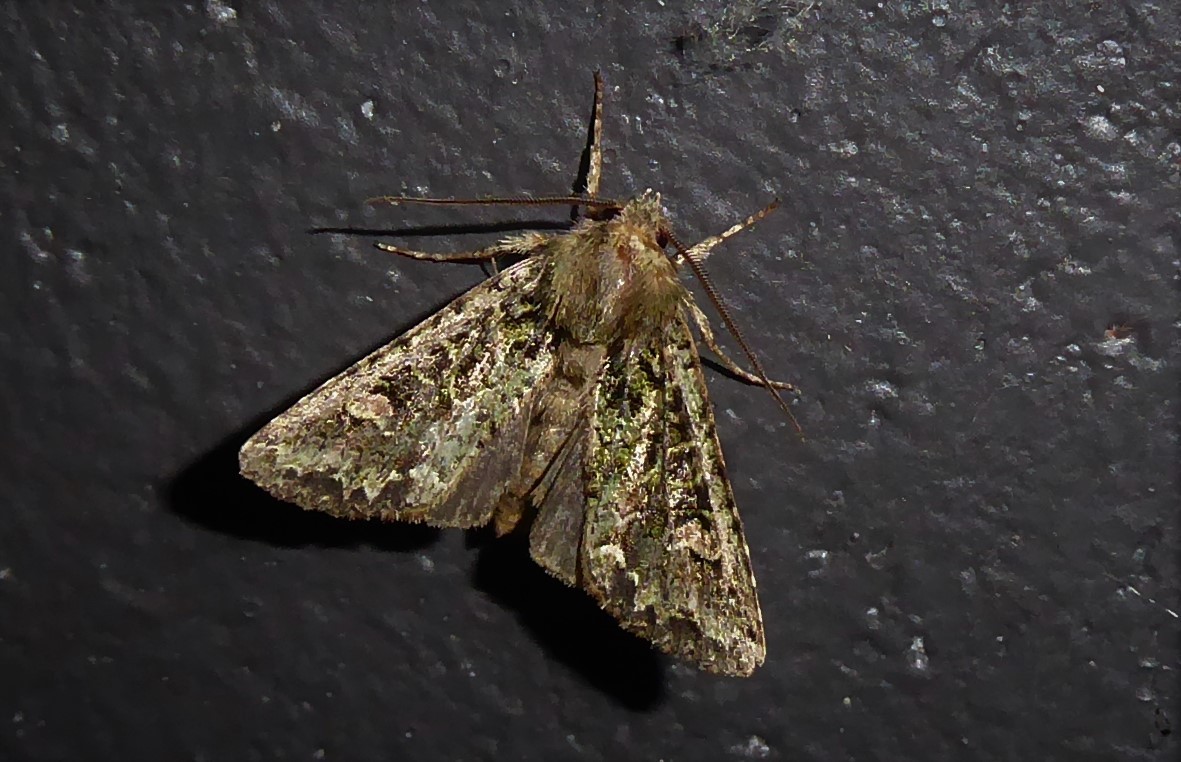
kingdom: Animalia
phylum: Arthropoda
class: Insecta
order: Lepidoptera
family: Noctuidae
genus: Ichneutica
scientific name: Ichneutica
